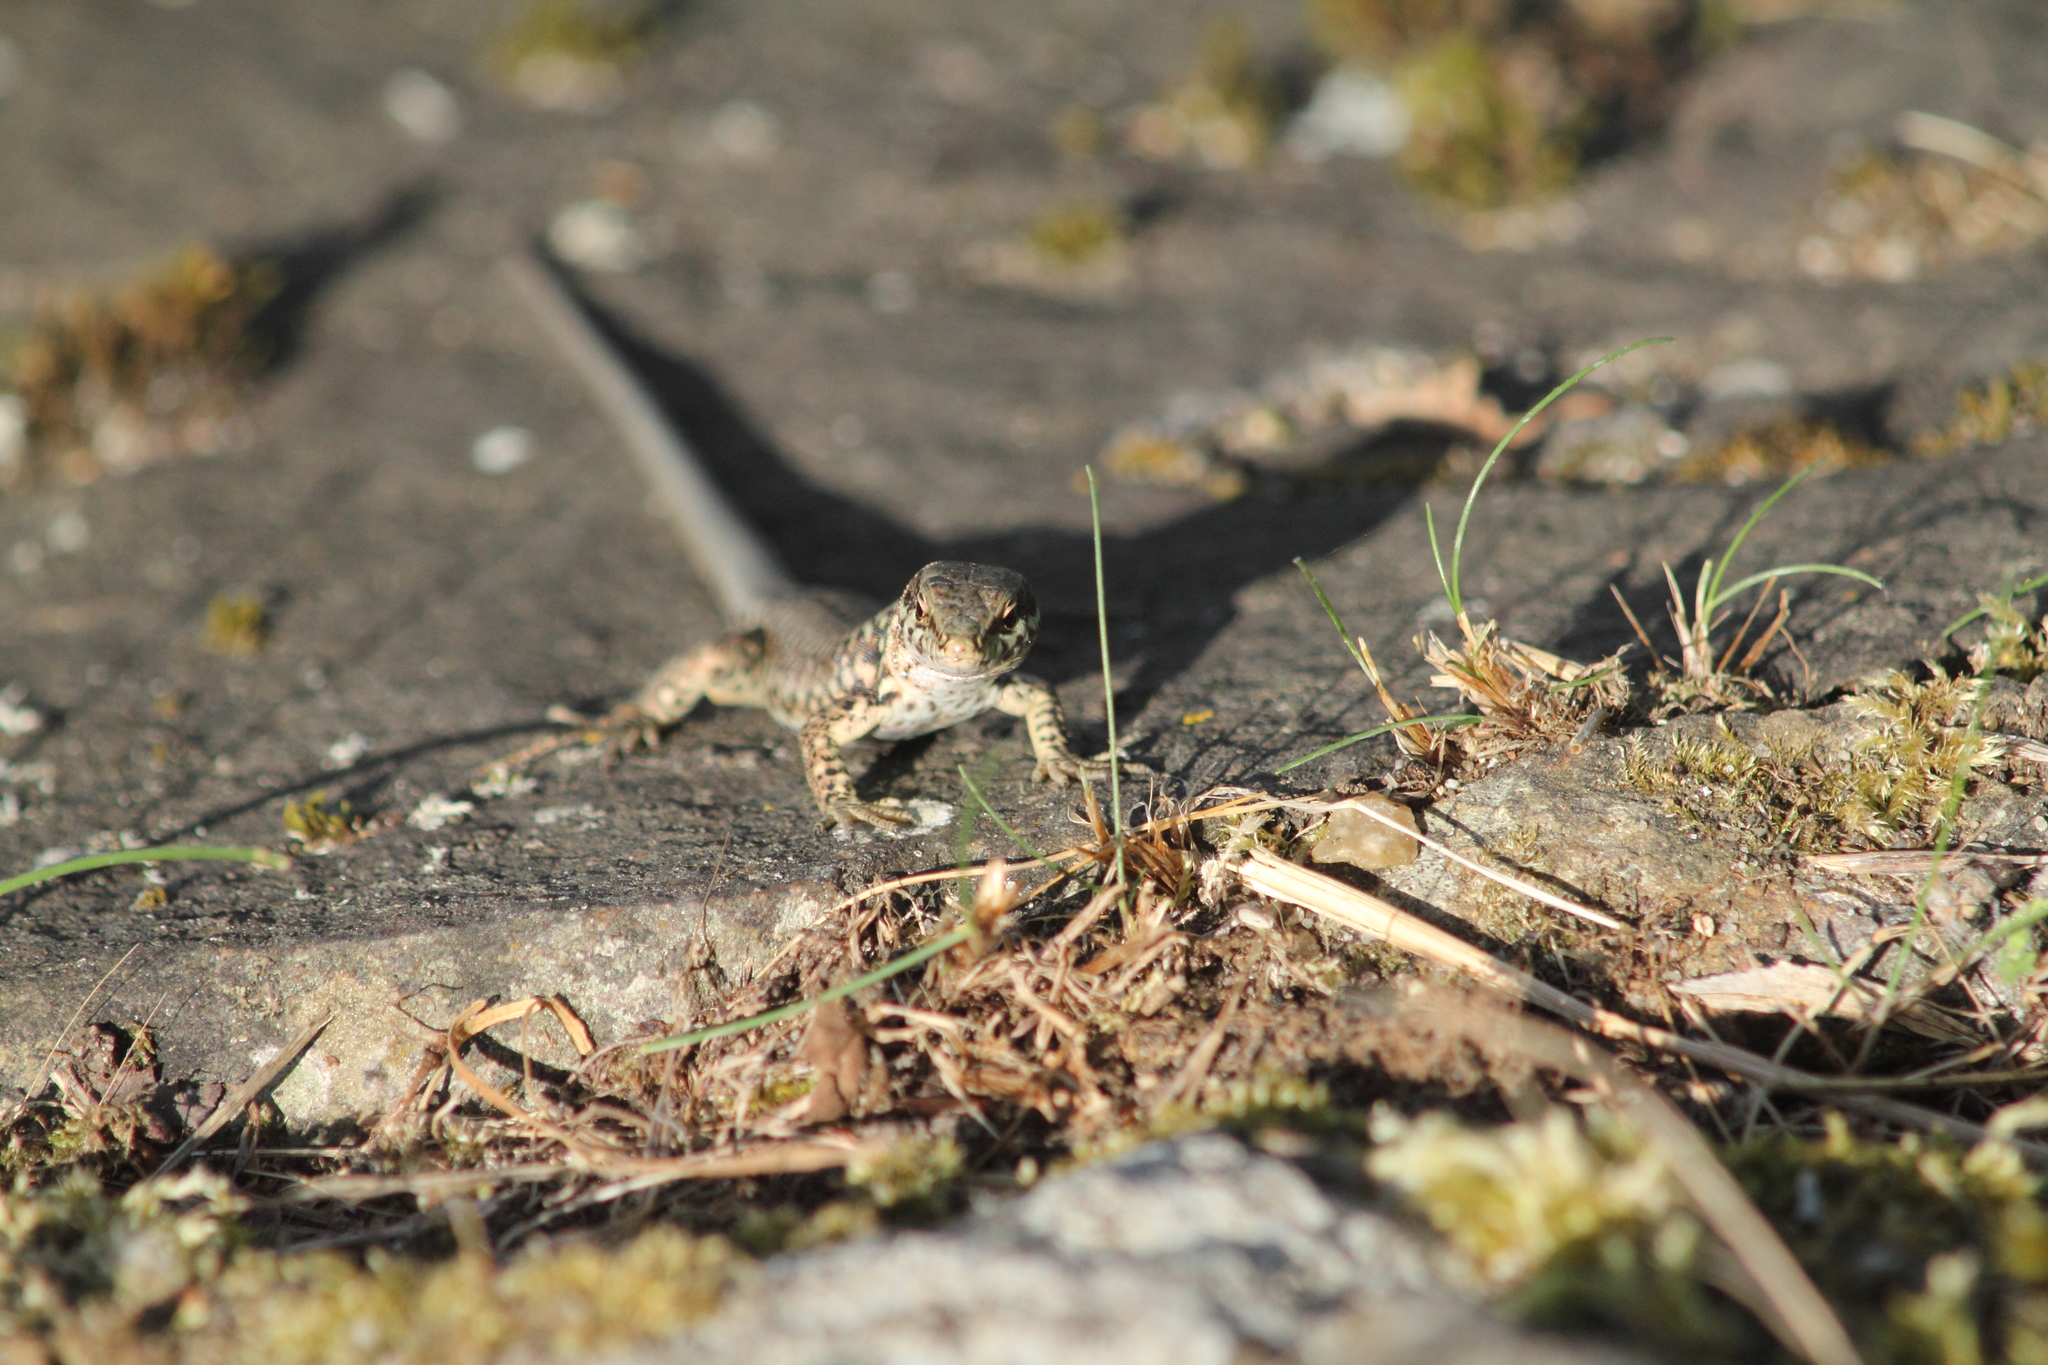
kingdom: Animalia
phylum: Chordata
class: Squamata
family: Lacertidae
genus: Podarcis
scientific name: Podarcis muralis
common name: Common wall lizard
